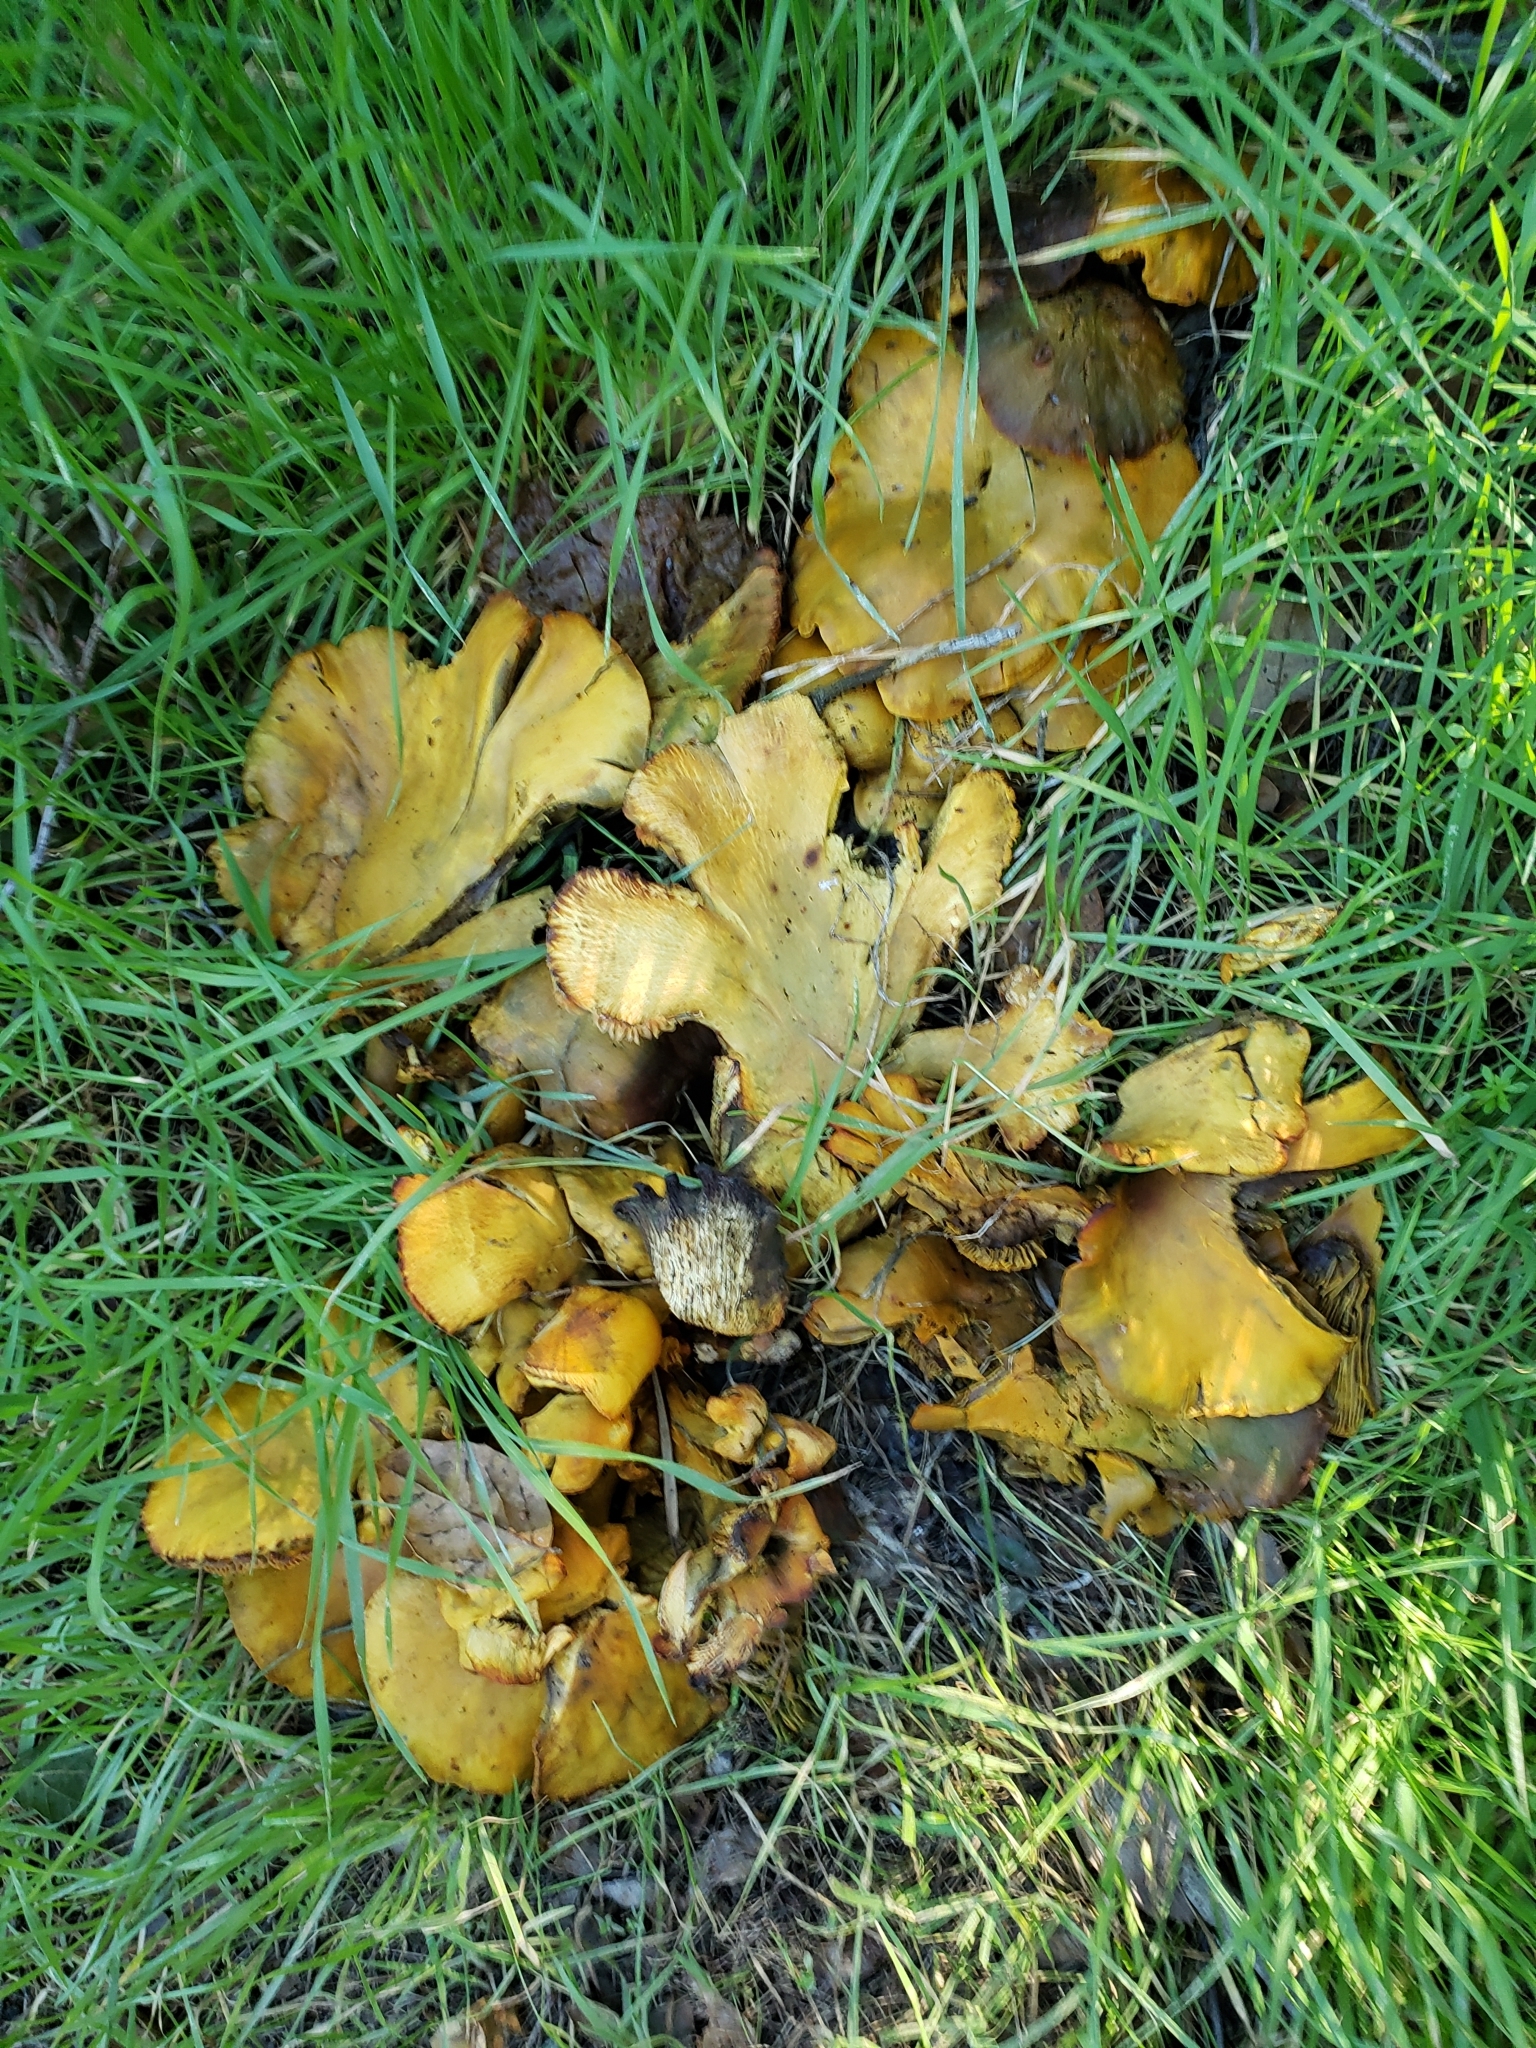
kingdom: Fungi
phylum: Basidiomycota
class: Agaricomycetes
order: Agaricales
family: Omphalotaceae
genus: Omphalotus
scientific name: Omphalotus olivascens
